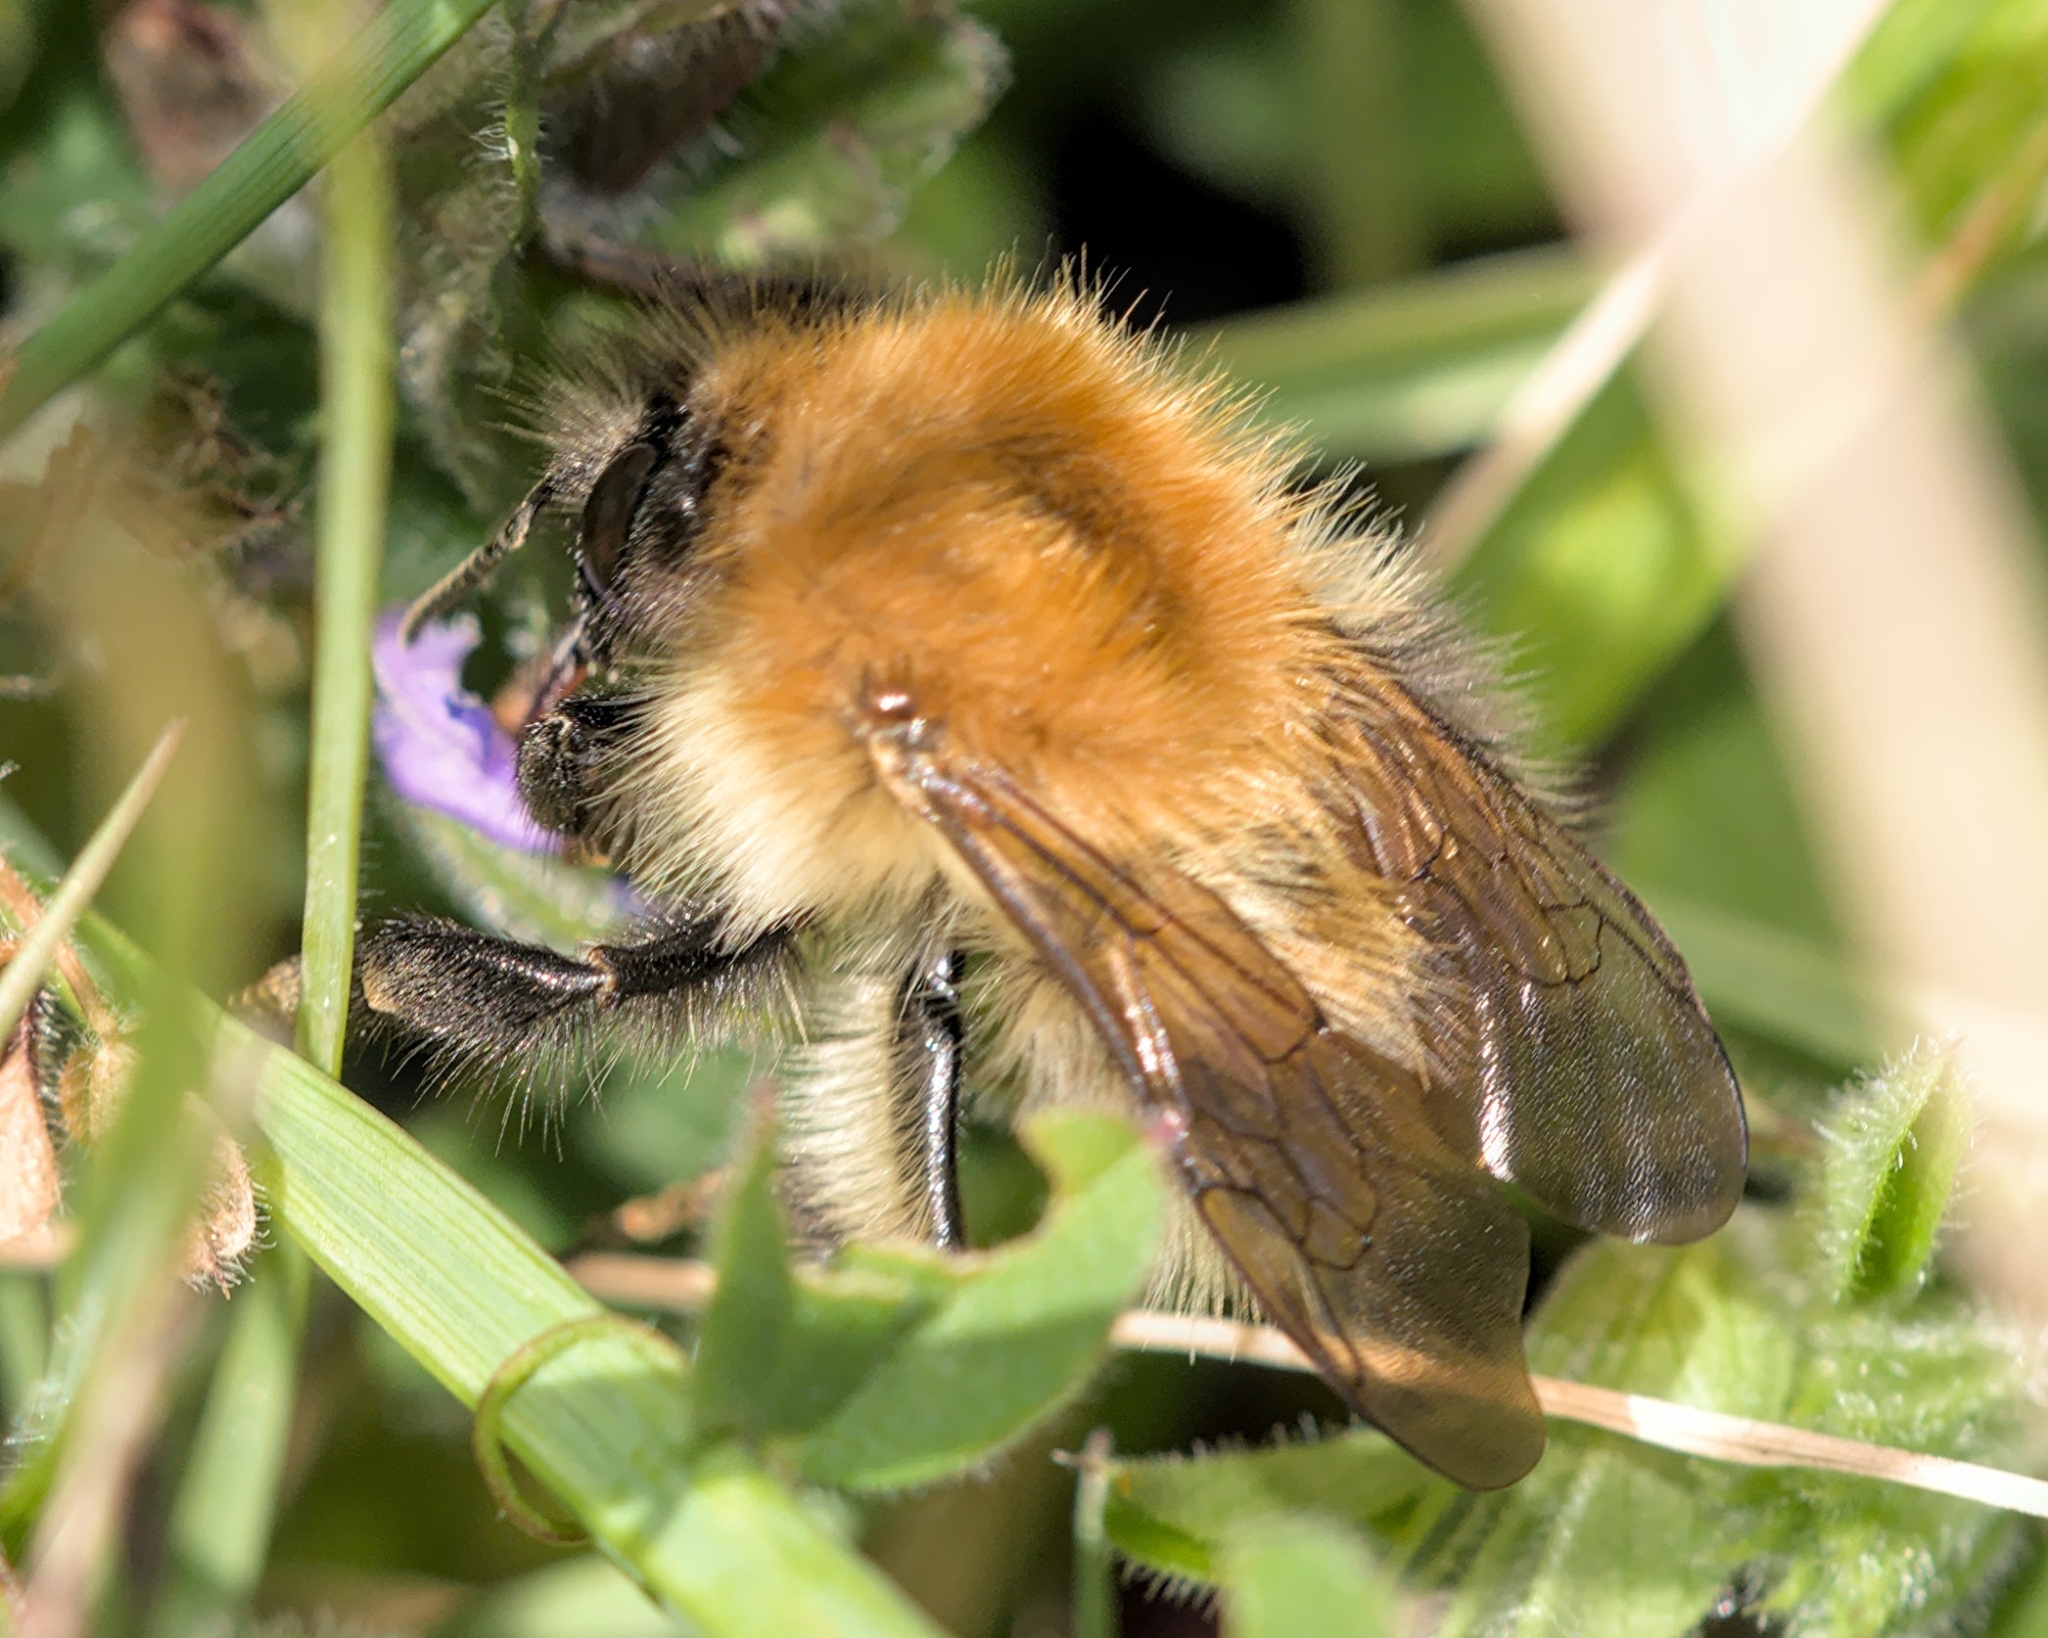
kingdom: Animalia
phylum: Arthropoda
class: Insecta
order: Hymenoptera
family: Apidae
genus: Bombus
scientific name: Bombus pascuorum
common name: Common carder bee
